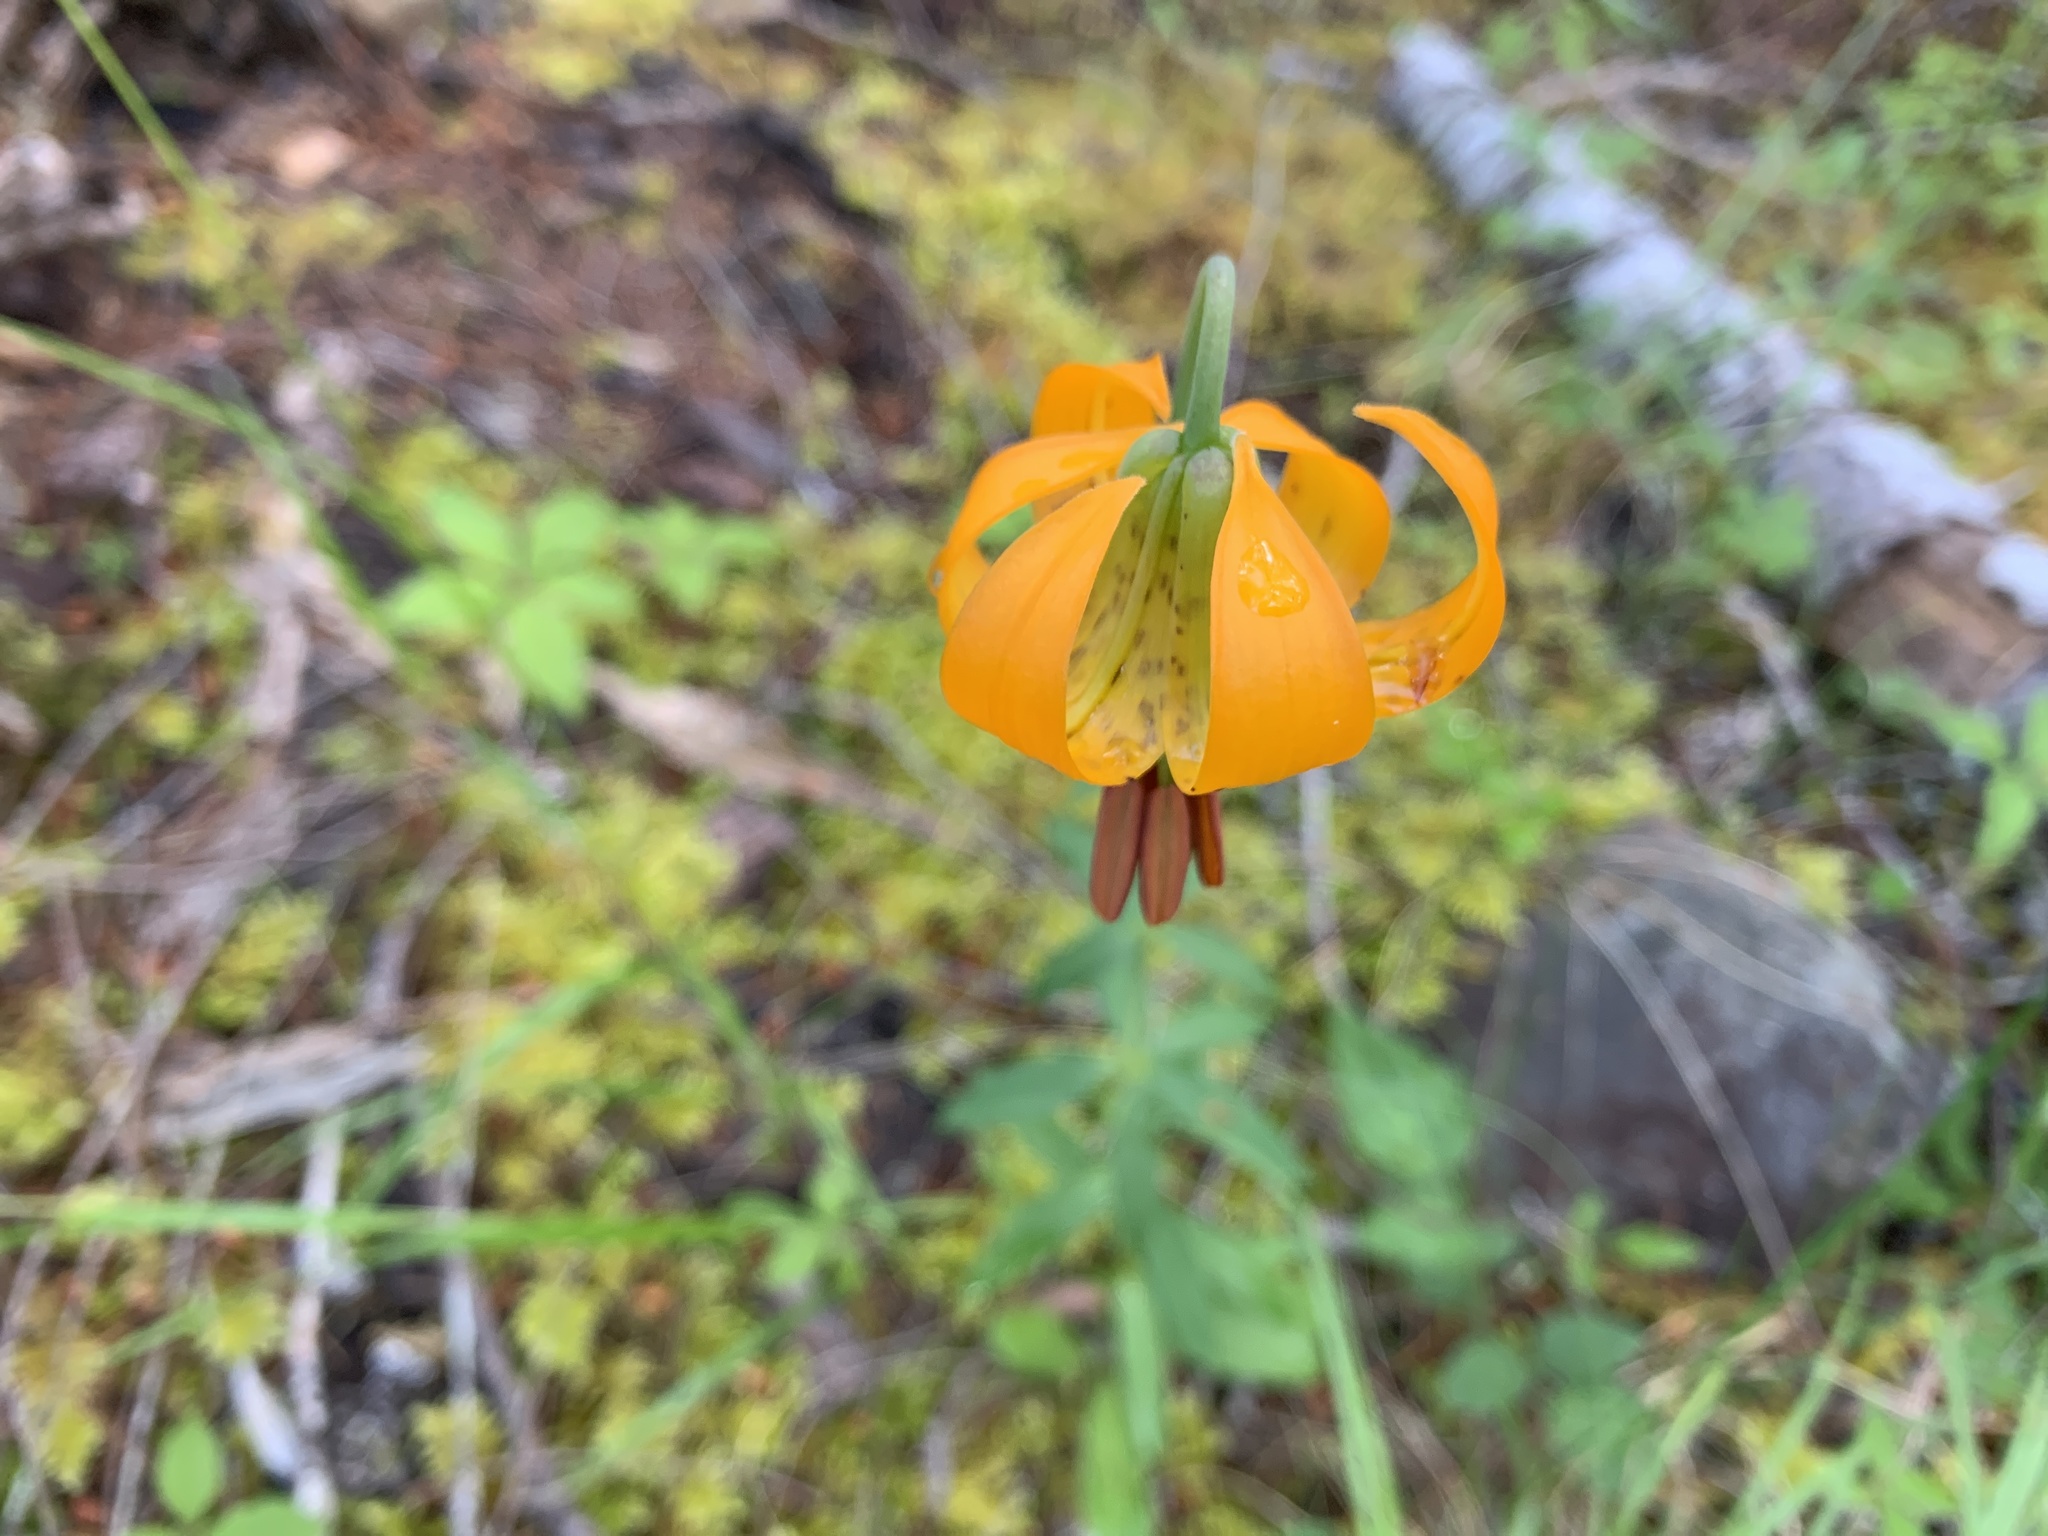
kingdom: Plantae
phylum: Tracheophyta
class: Liliopsida
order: Liliales
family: Liliaceae
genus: Lilium
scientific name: Lilium columbianum
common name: Columbia lily
